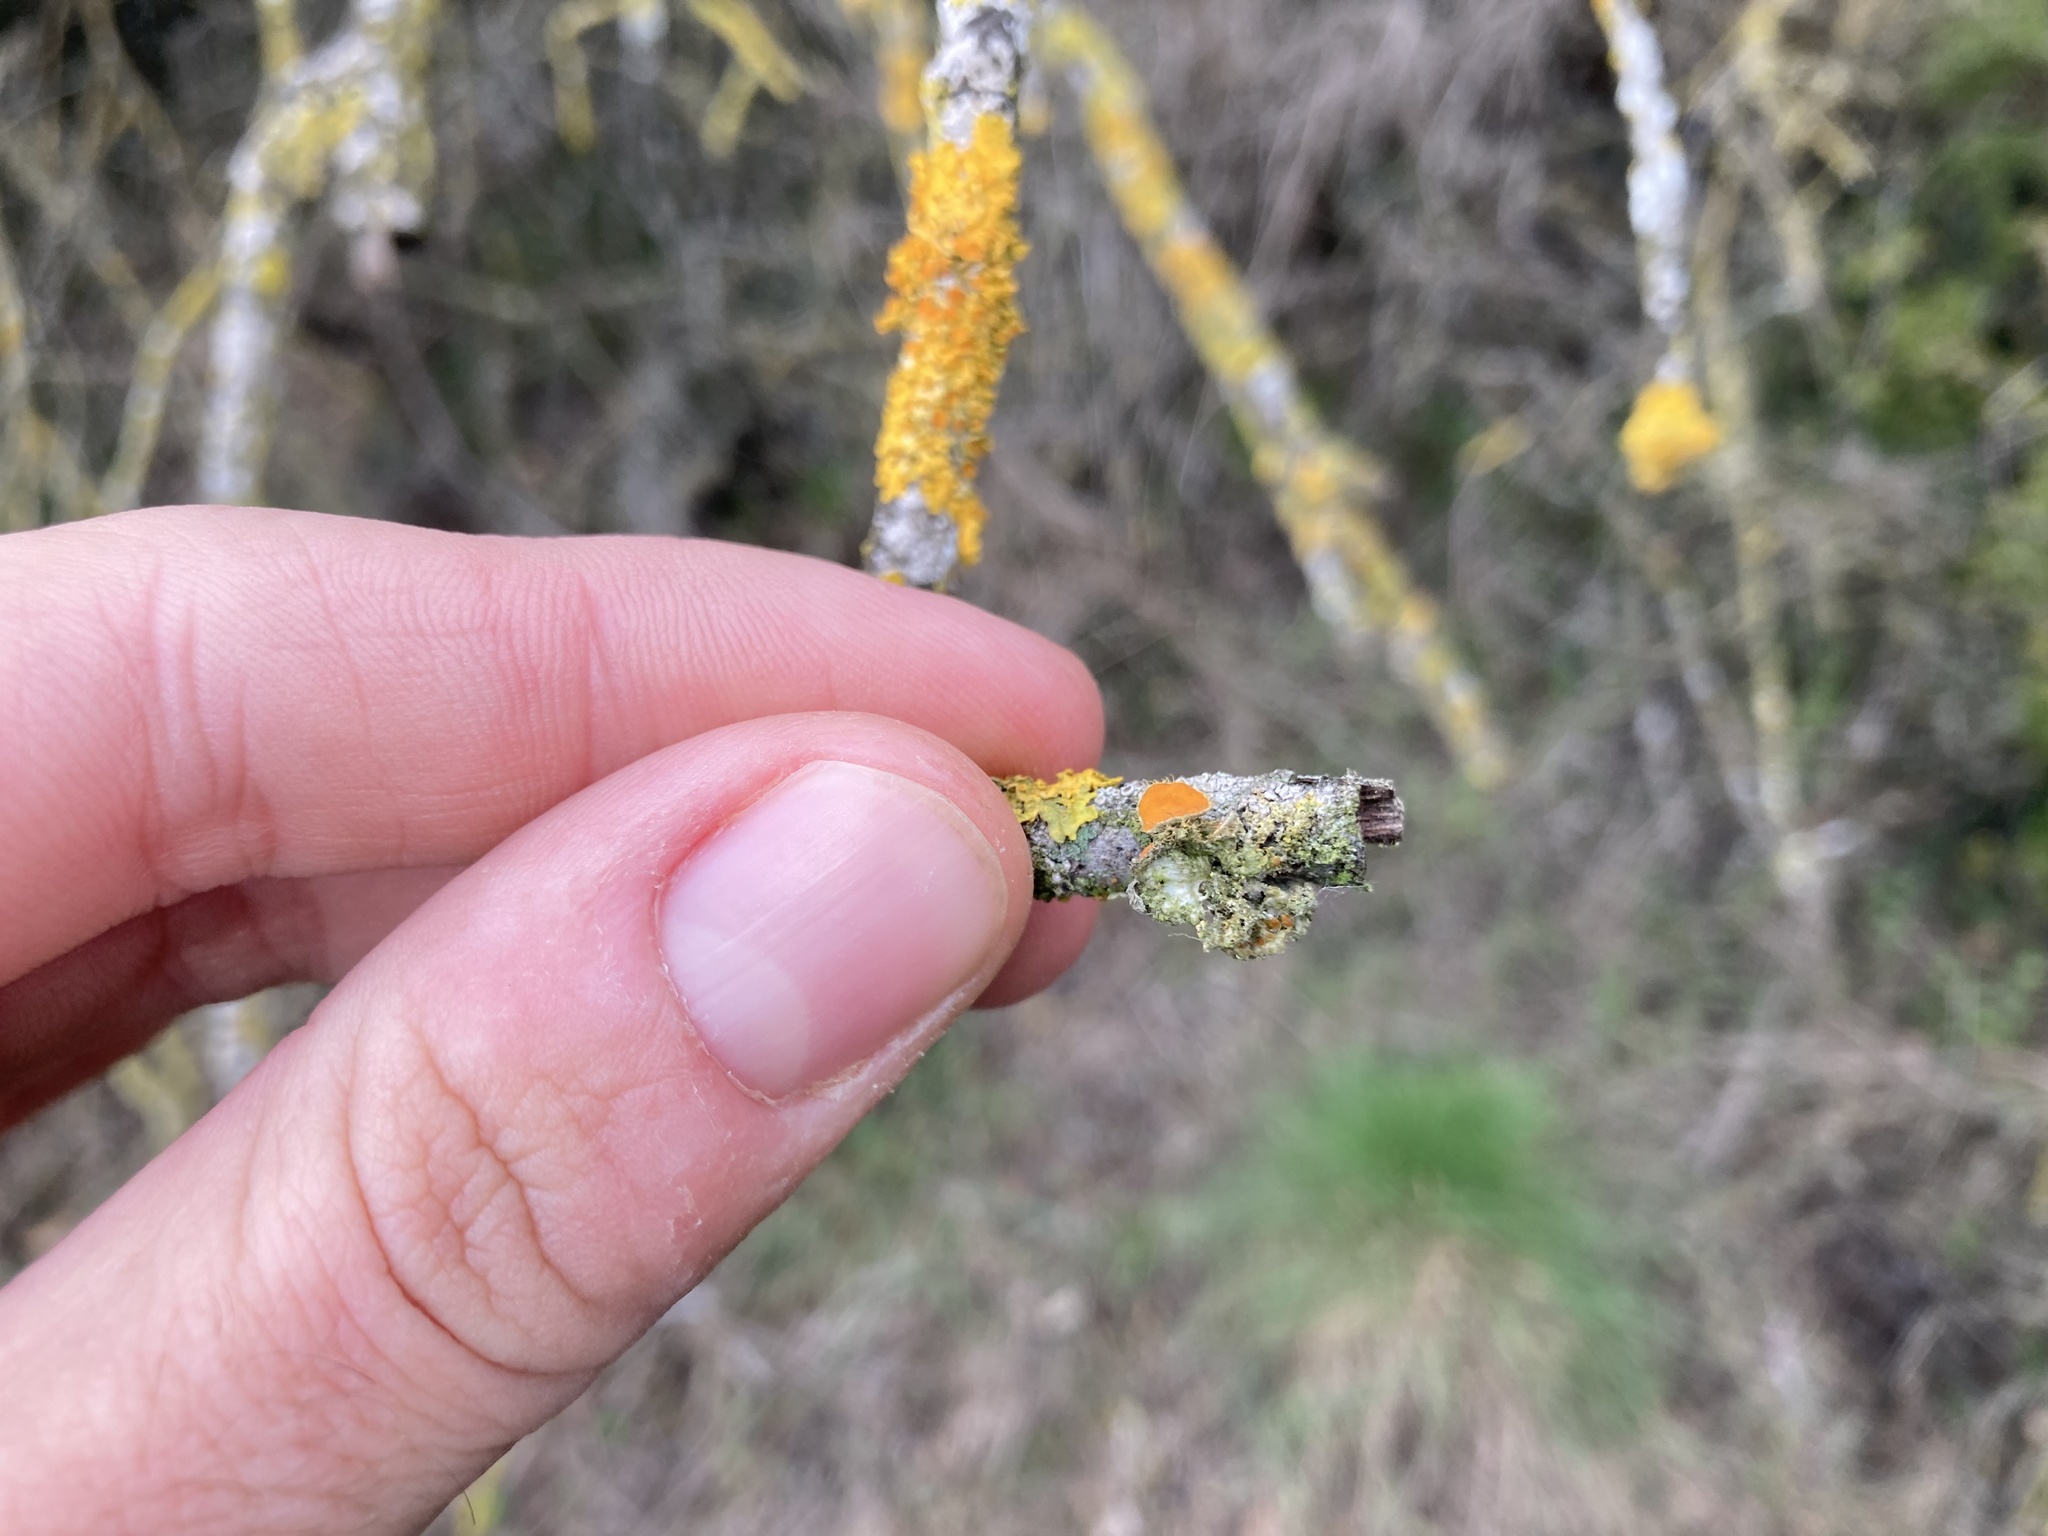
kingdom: Fungi
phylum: Ascomycota
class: Lecanoromycetes
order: Teloschistales
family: Teloschistaceae
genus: Niorma
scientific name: Niorma chrysophthalma
